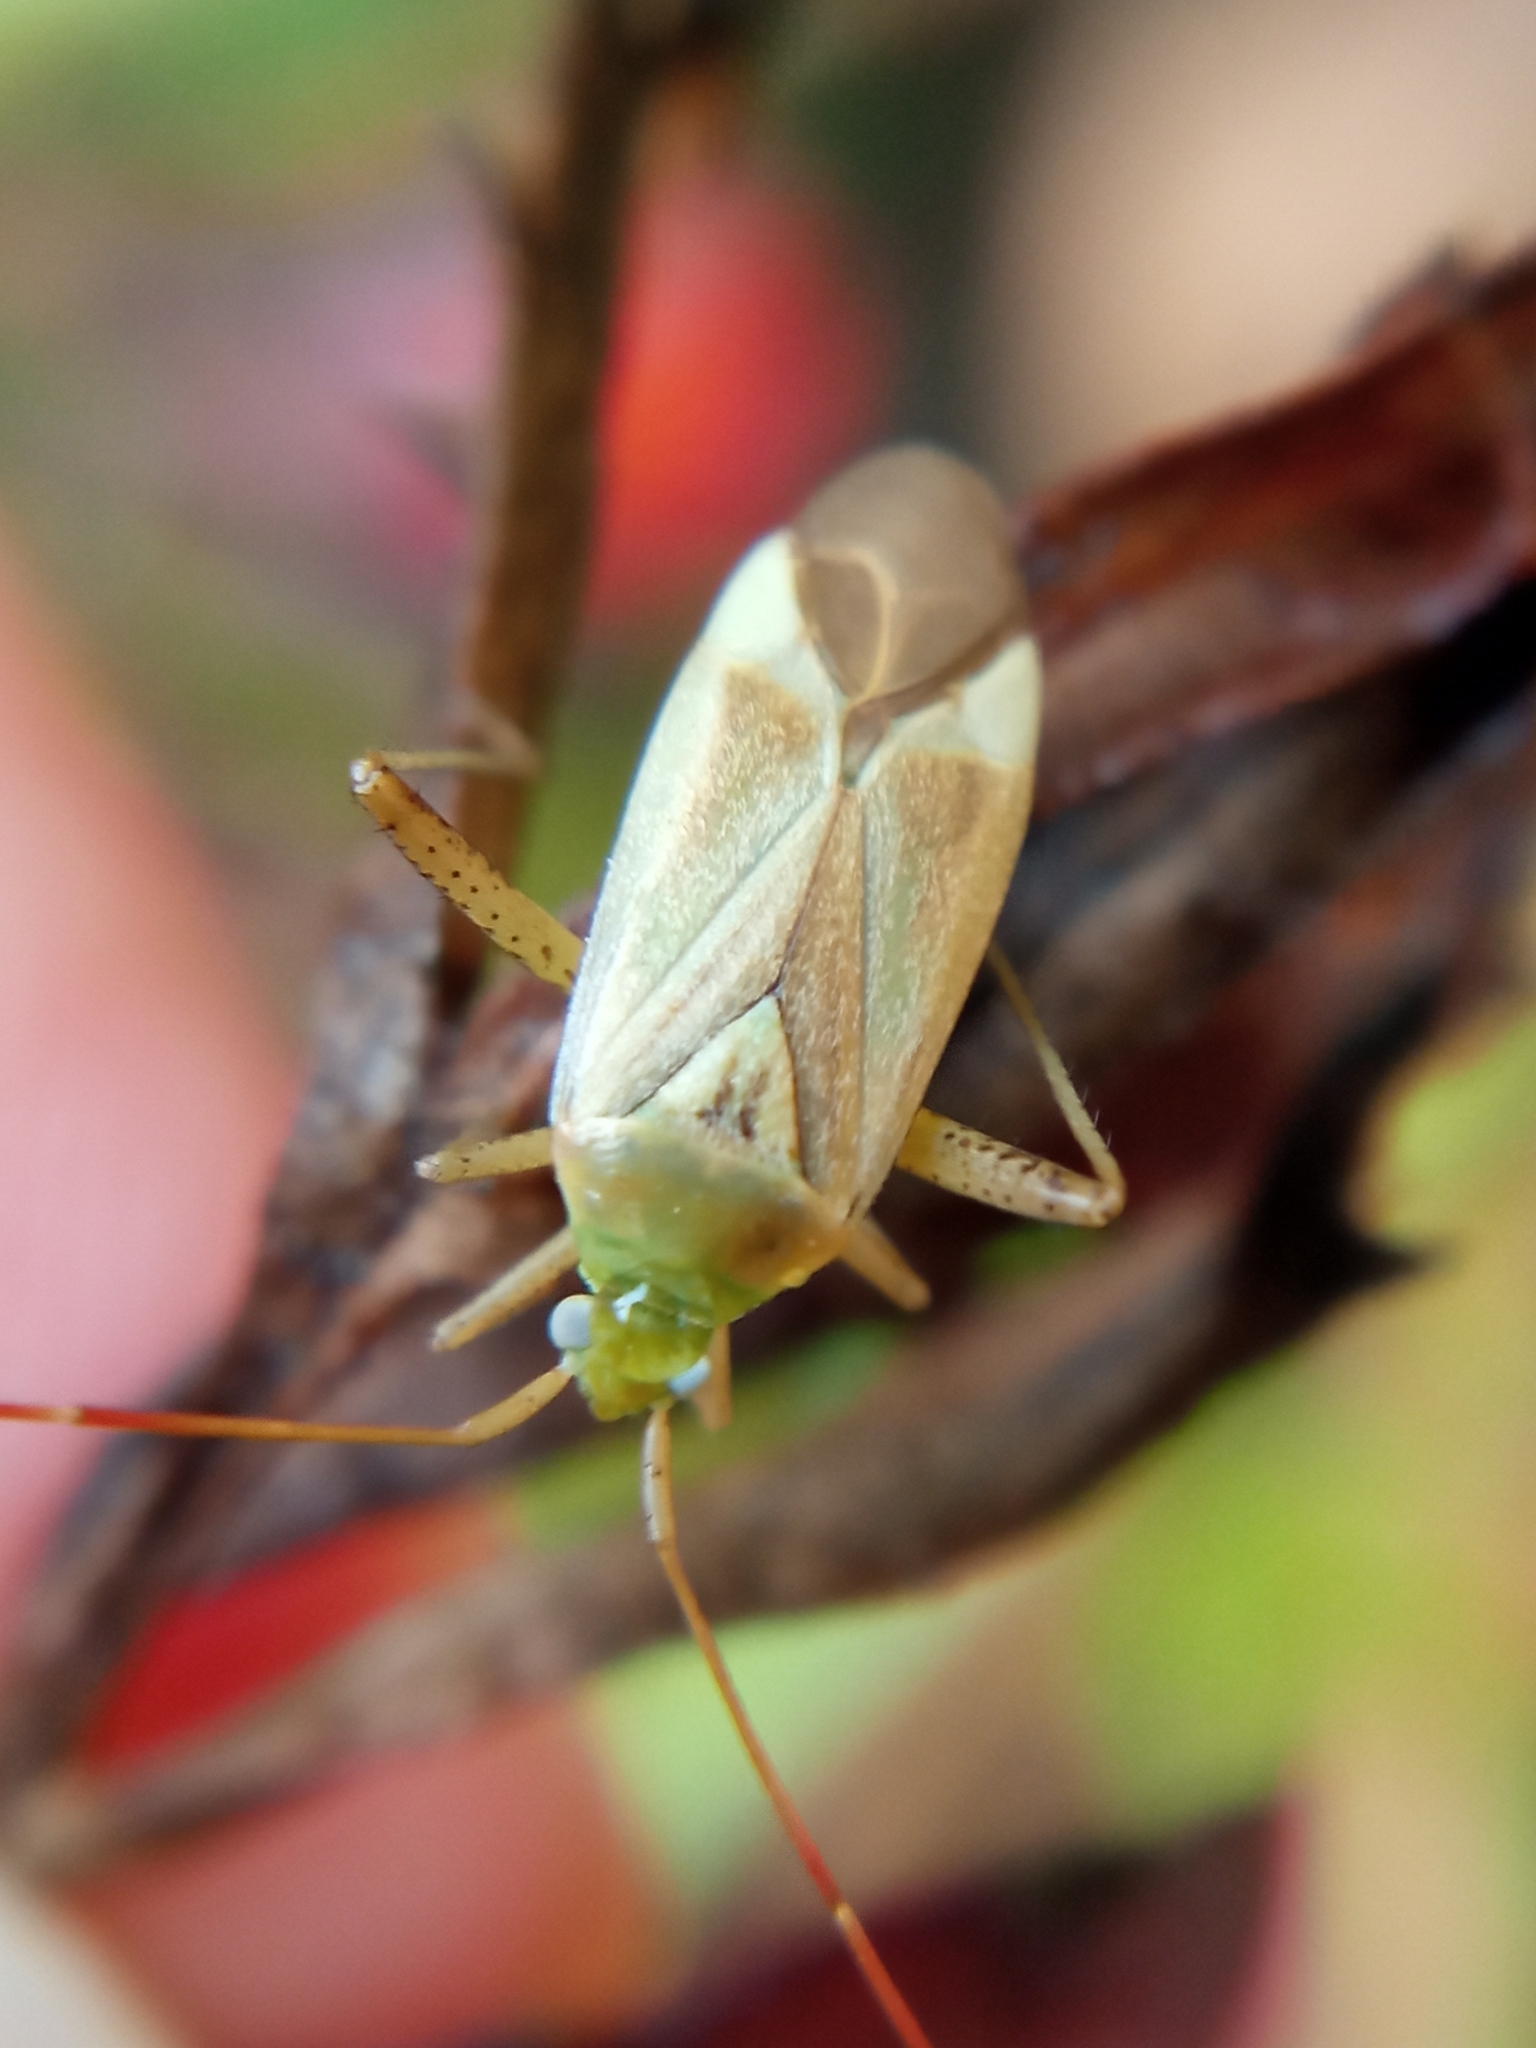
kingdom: Animalia
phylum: Arthropoda
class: Insecta
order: Hemiptera
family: Miridae
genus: Adelphocoris
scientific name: Adelphocoris lineolatus
